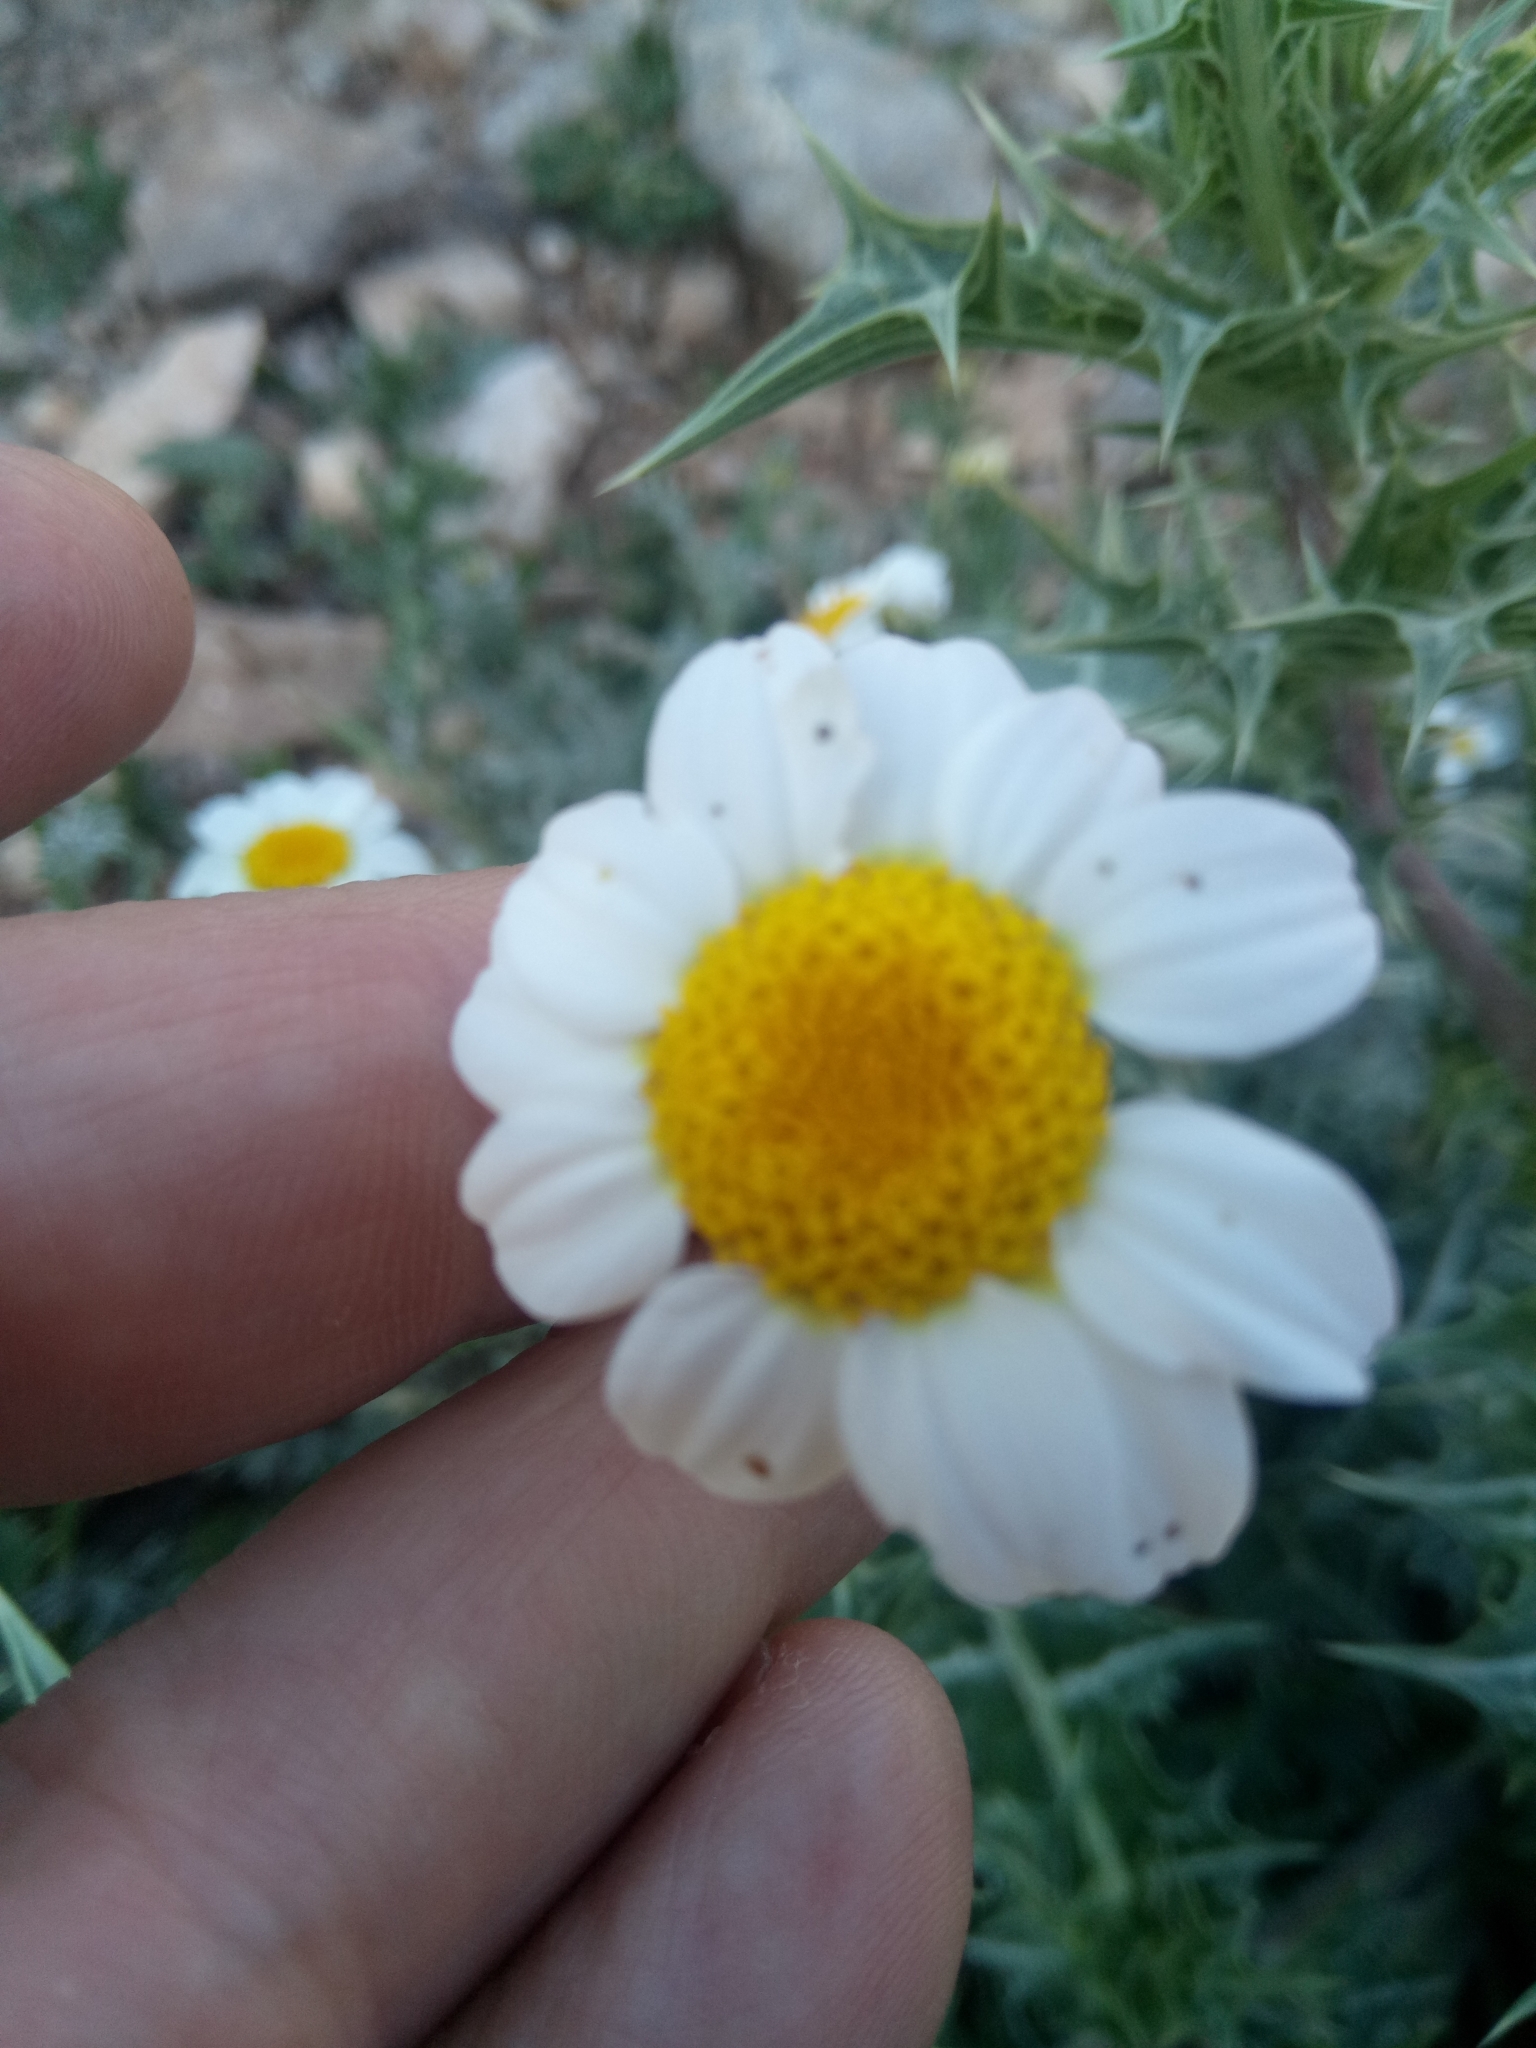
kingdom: Plantae
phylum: Tracheophyta
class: Magnoliopsida
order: Asterales
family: Asteraceae
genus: Anacyclus
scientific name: Anacyclus clavatus
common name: Whitebuttons
